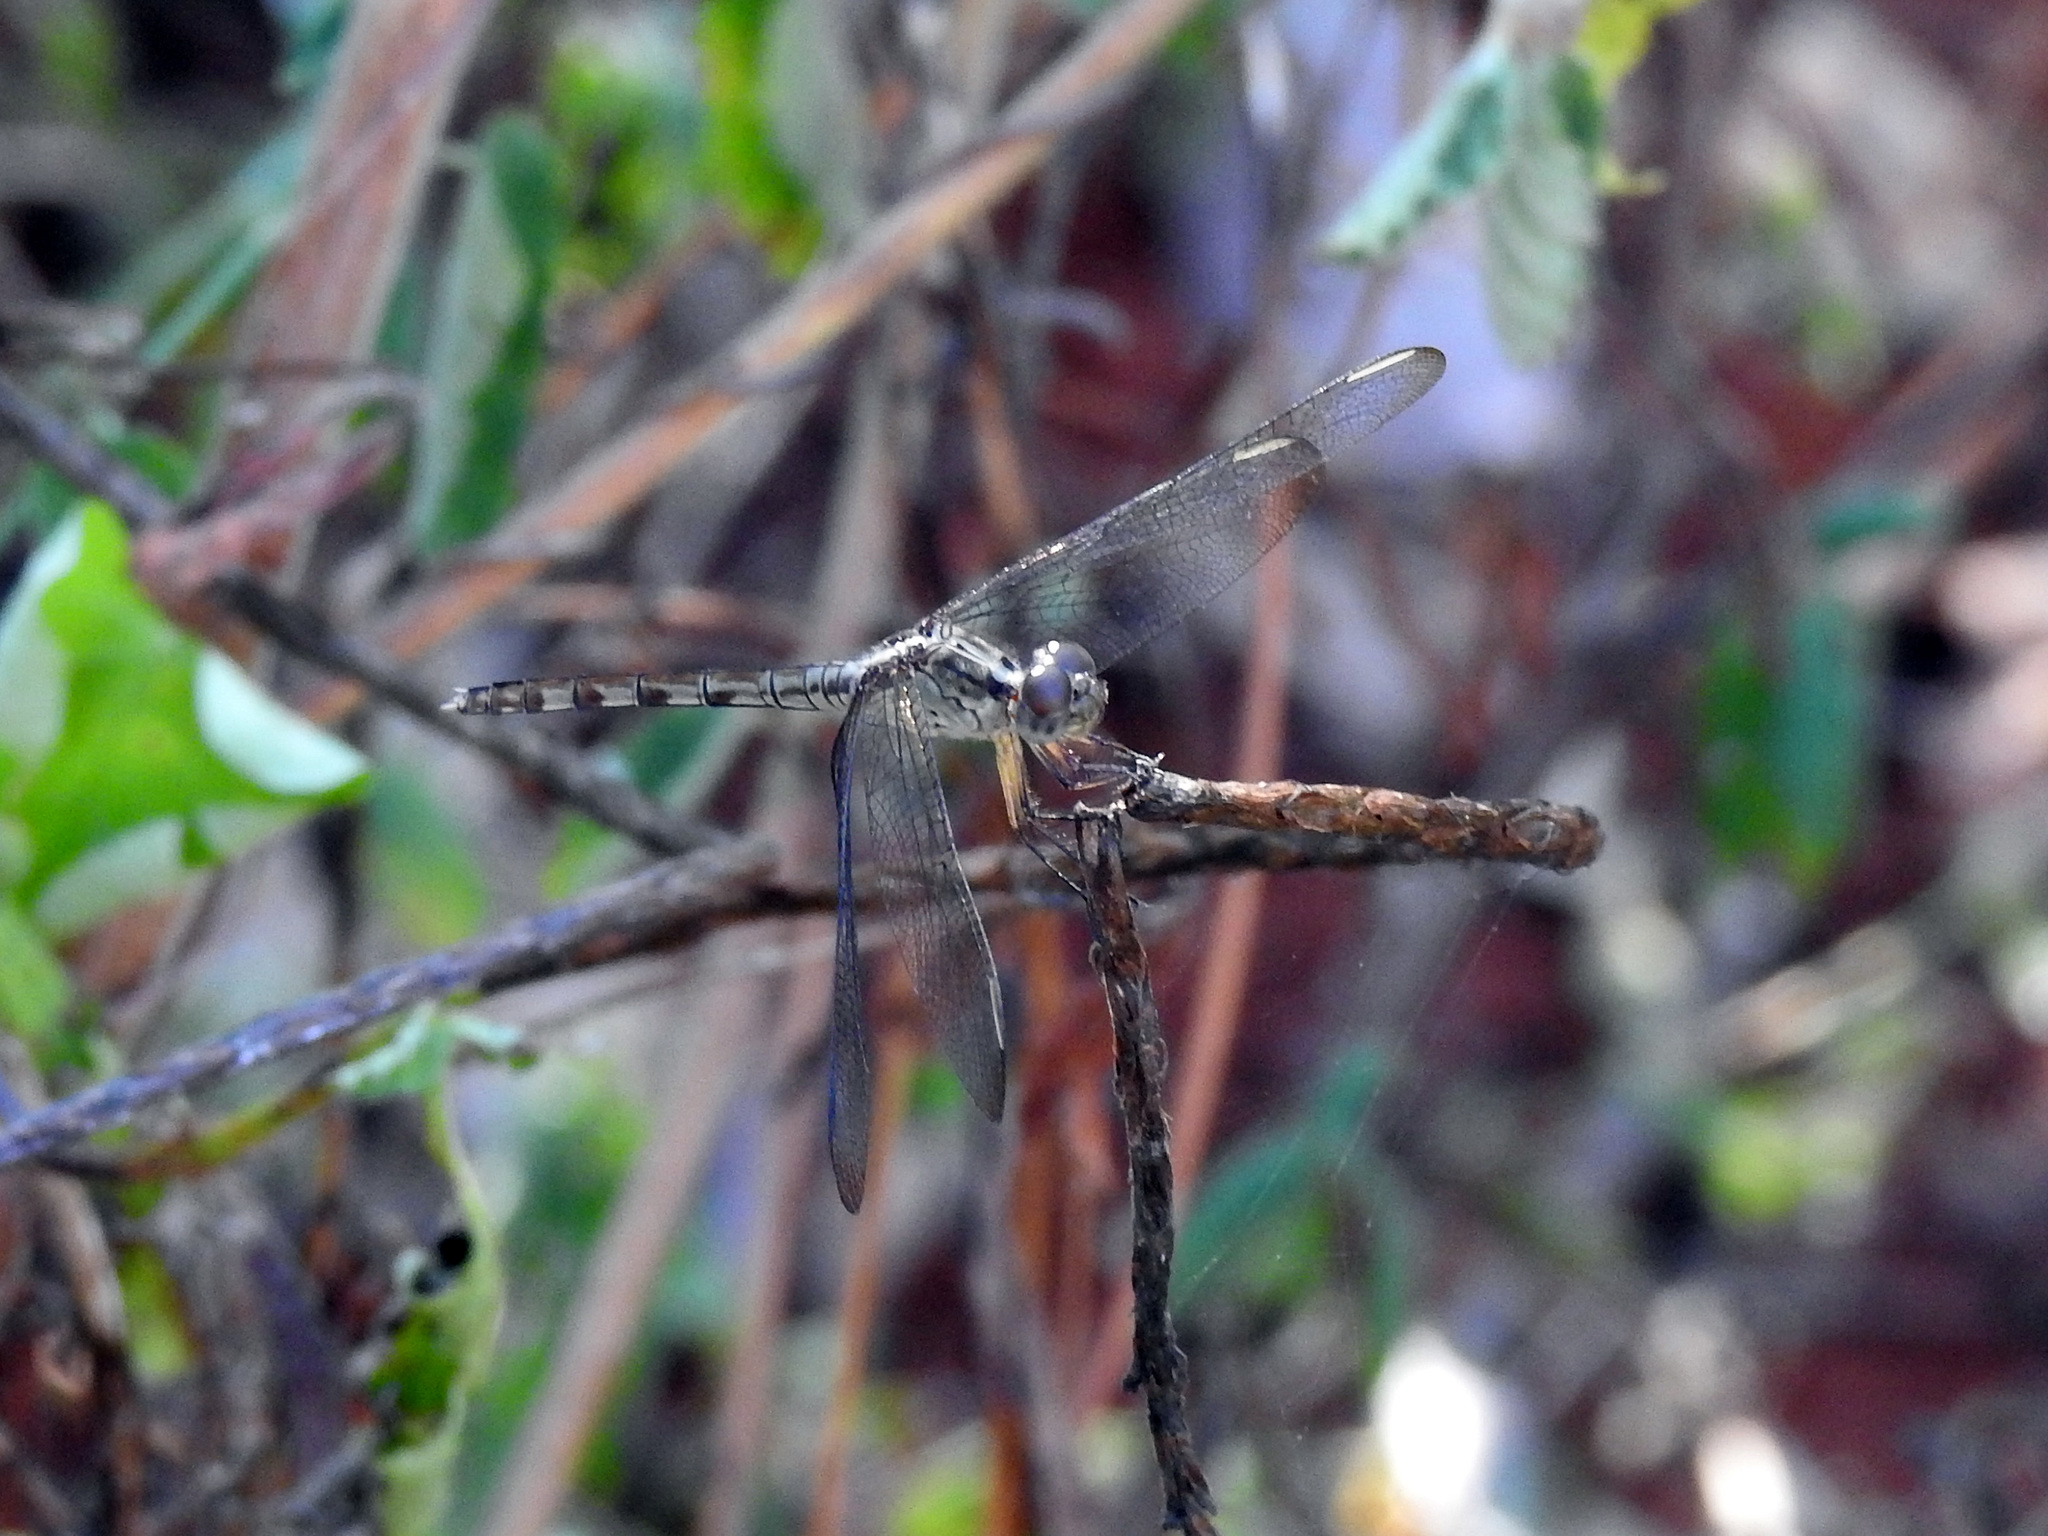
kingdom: Animalia
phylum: Arthropoda
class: Insecta
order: Odonata
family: Libellulidae
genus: Erythrodiplax
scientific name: Erythrodiplax umbrata
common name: Band-winged dragonlet
